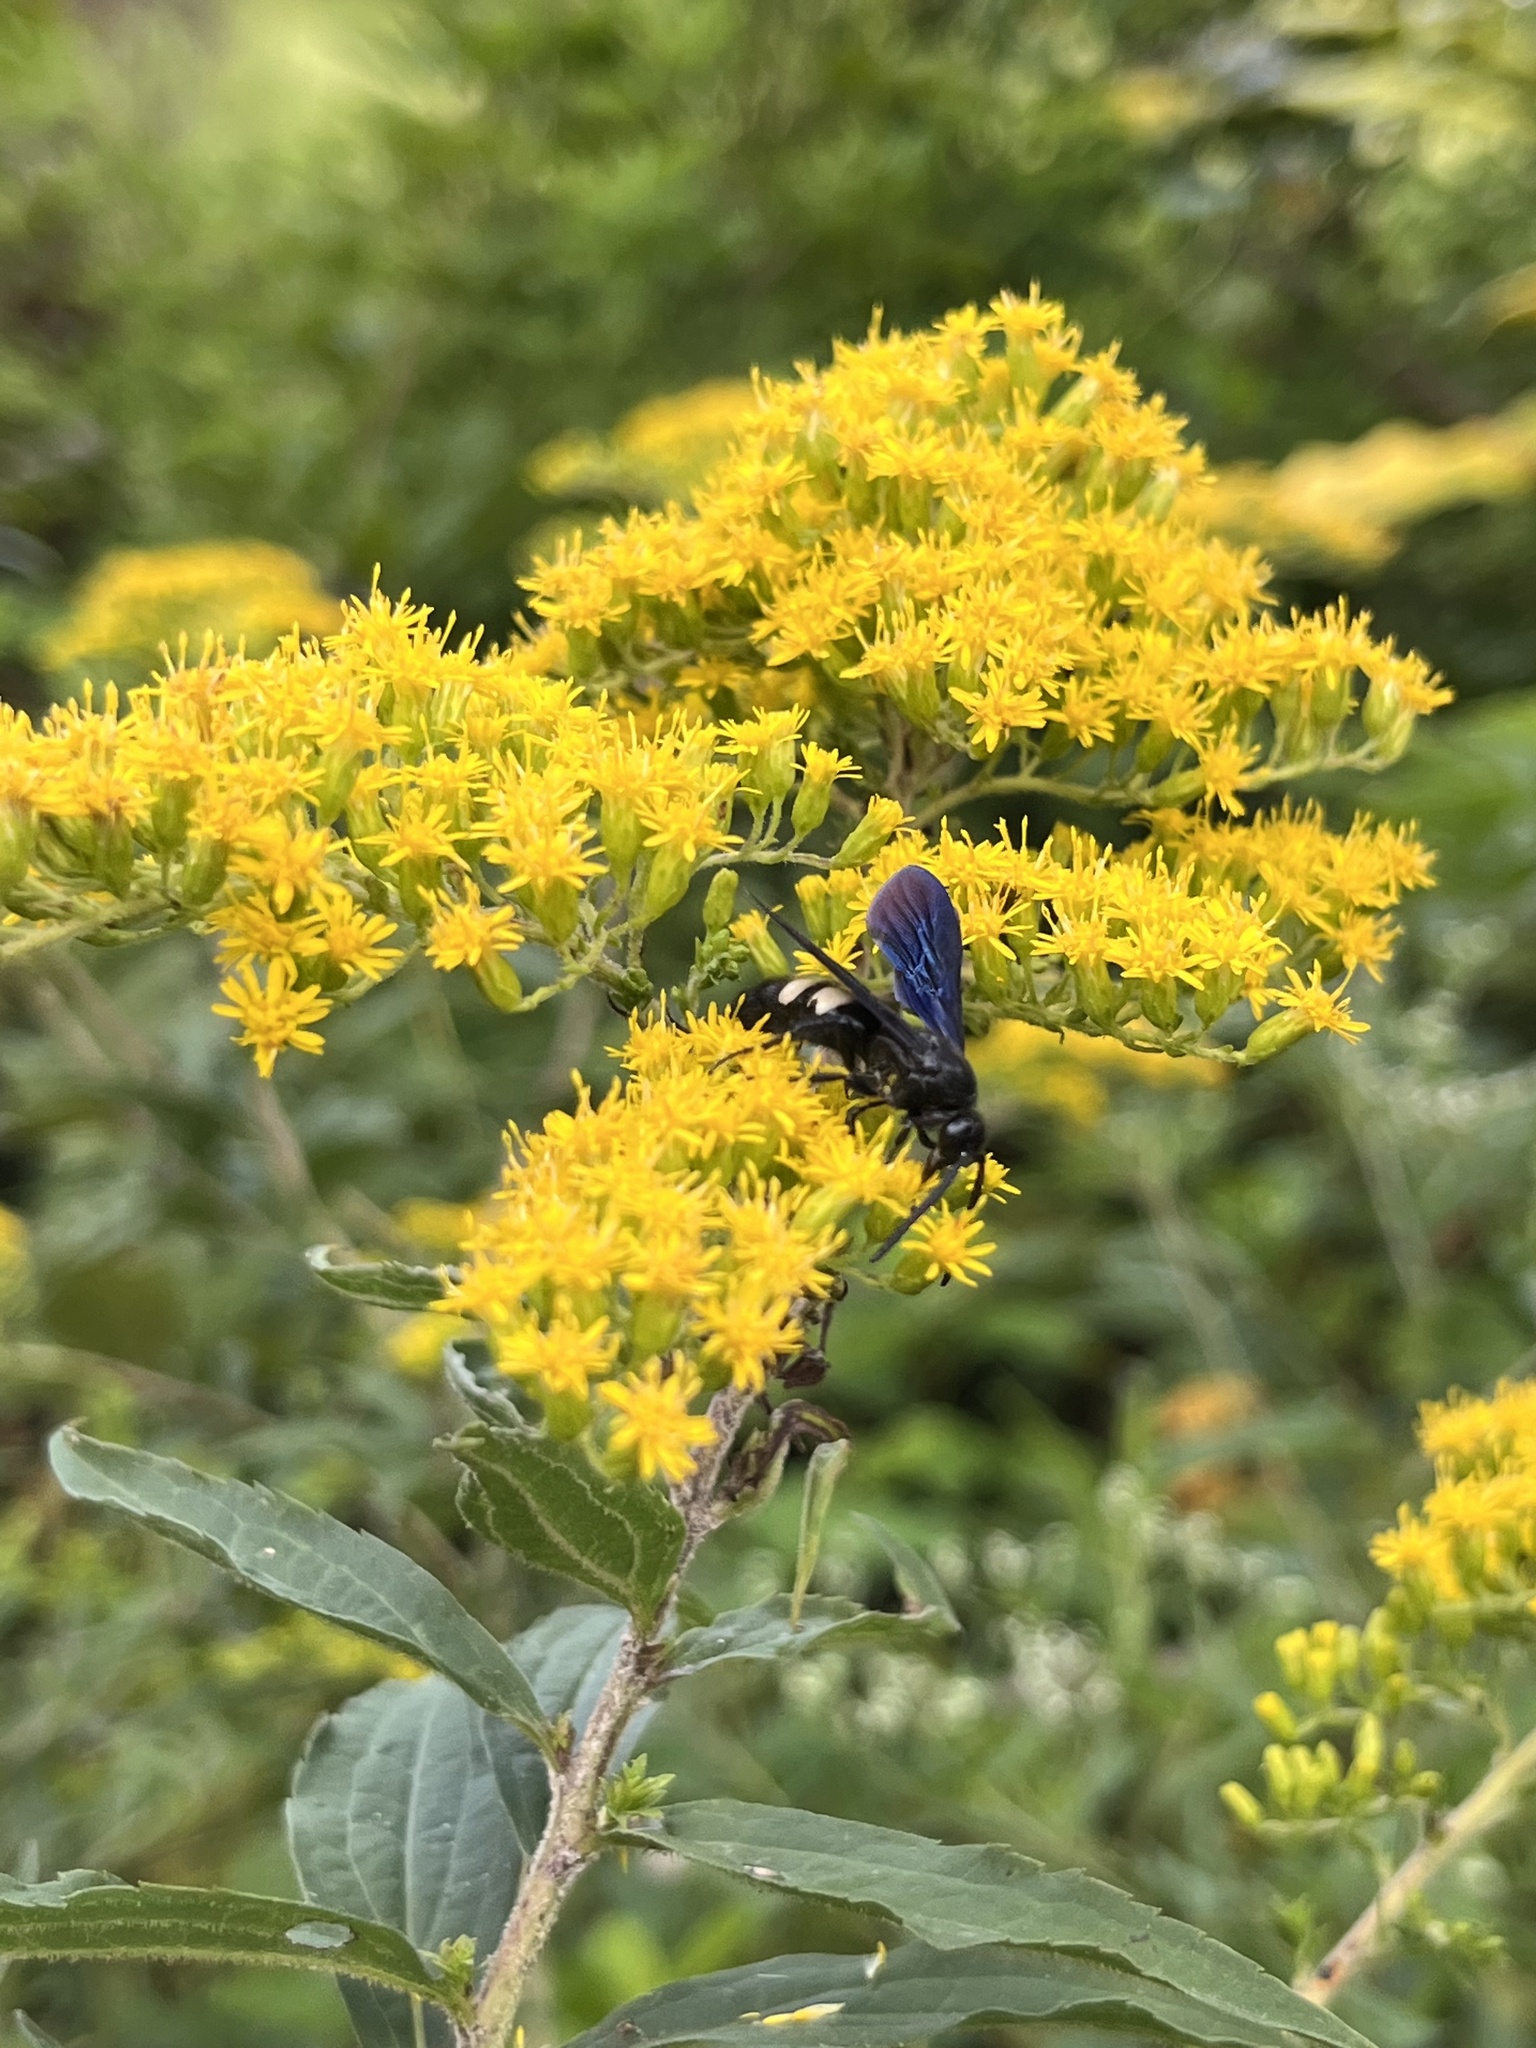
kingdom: Animalia
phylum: Arthropoda
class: Insecta
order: Hymenoptera
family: Scoliidae
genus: Scolia
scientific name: Scolia bicincta
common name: Double-banded scoliid wasp
